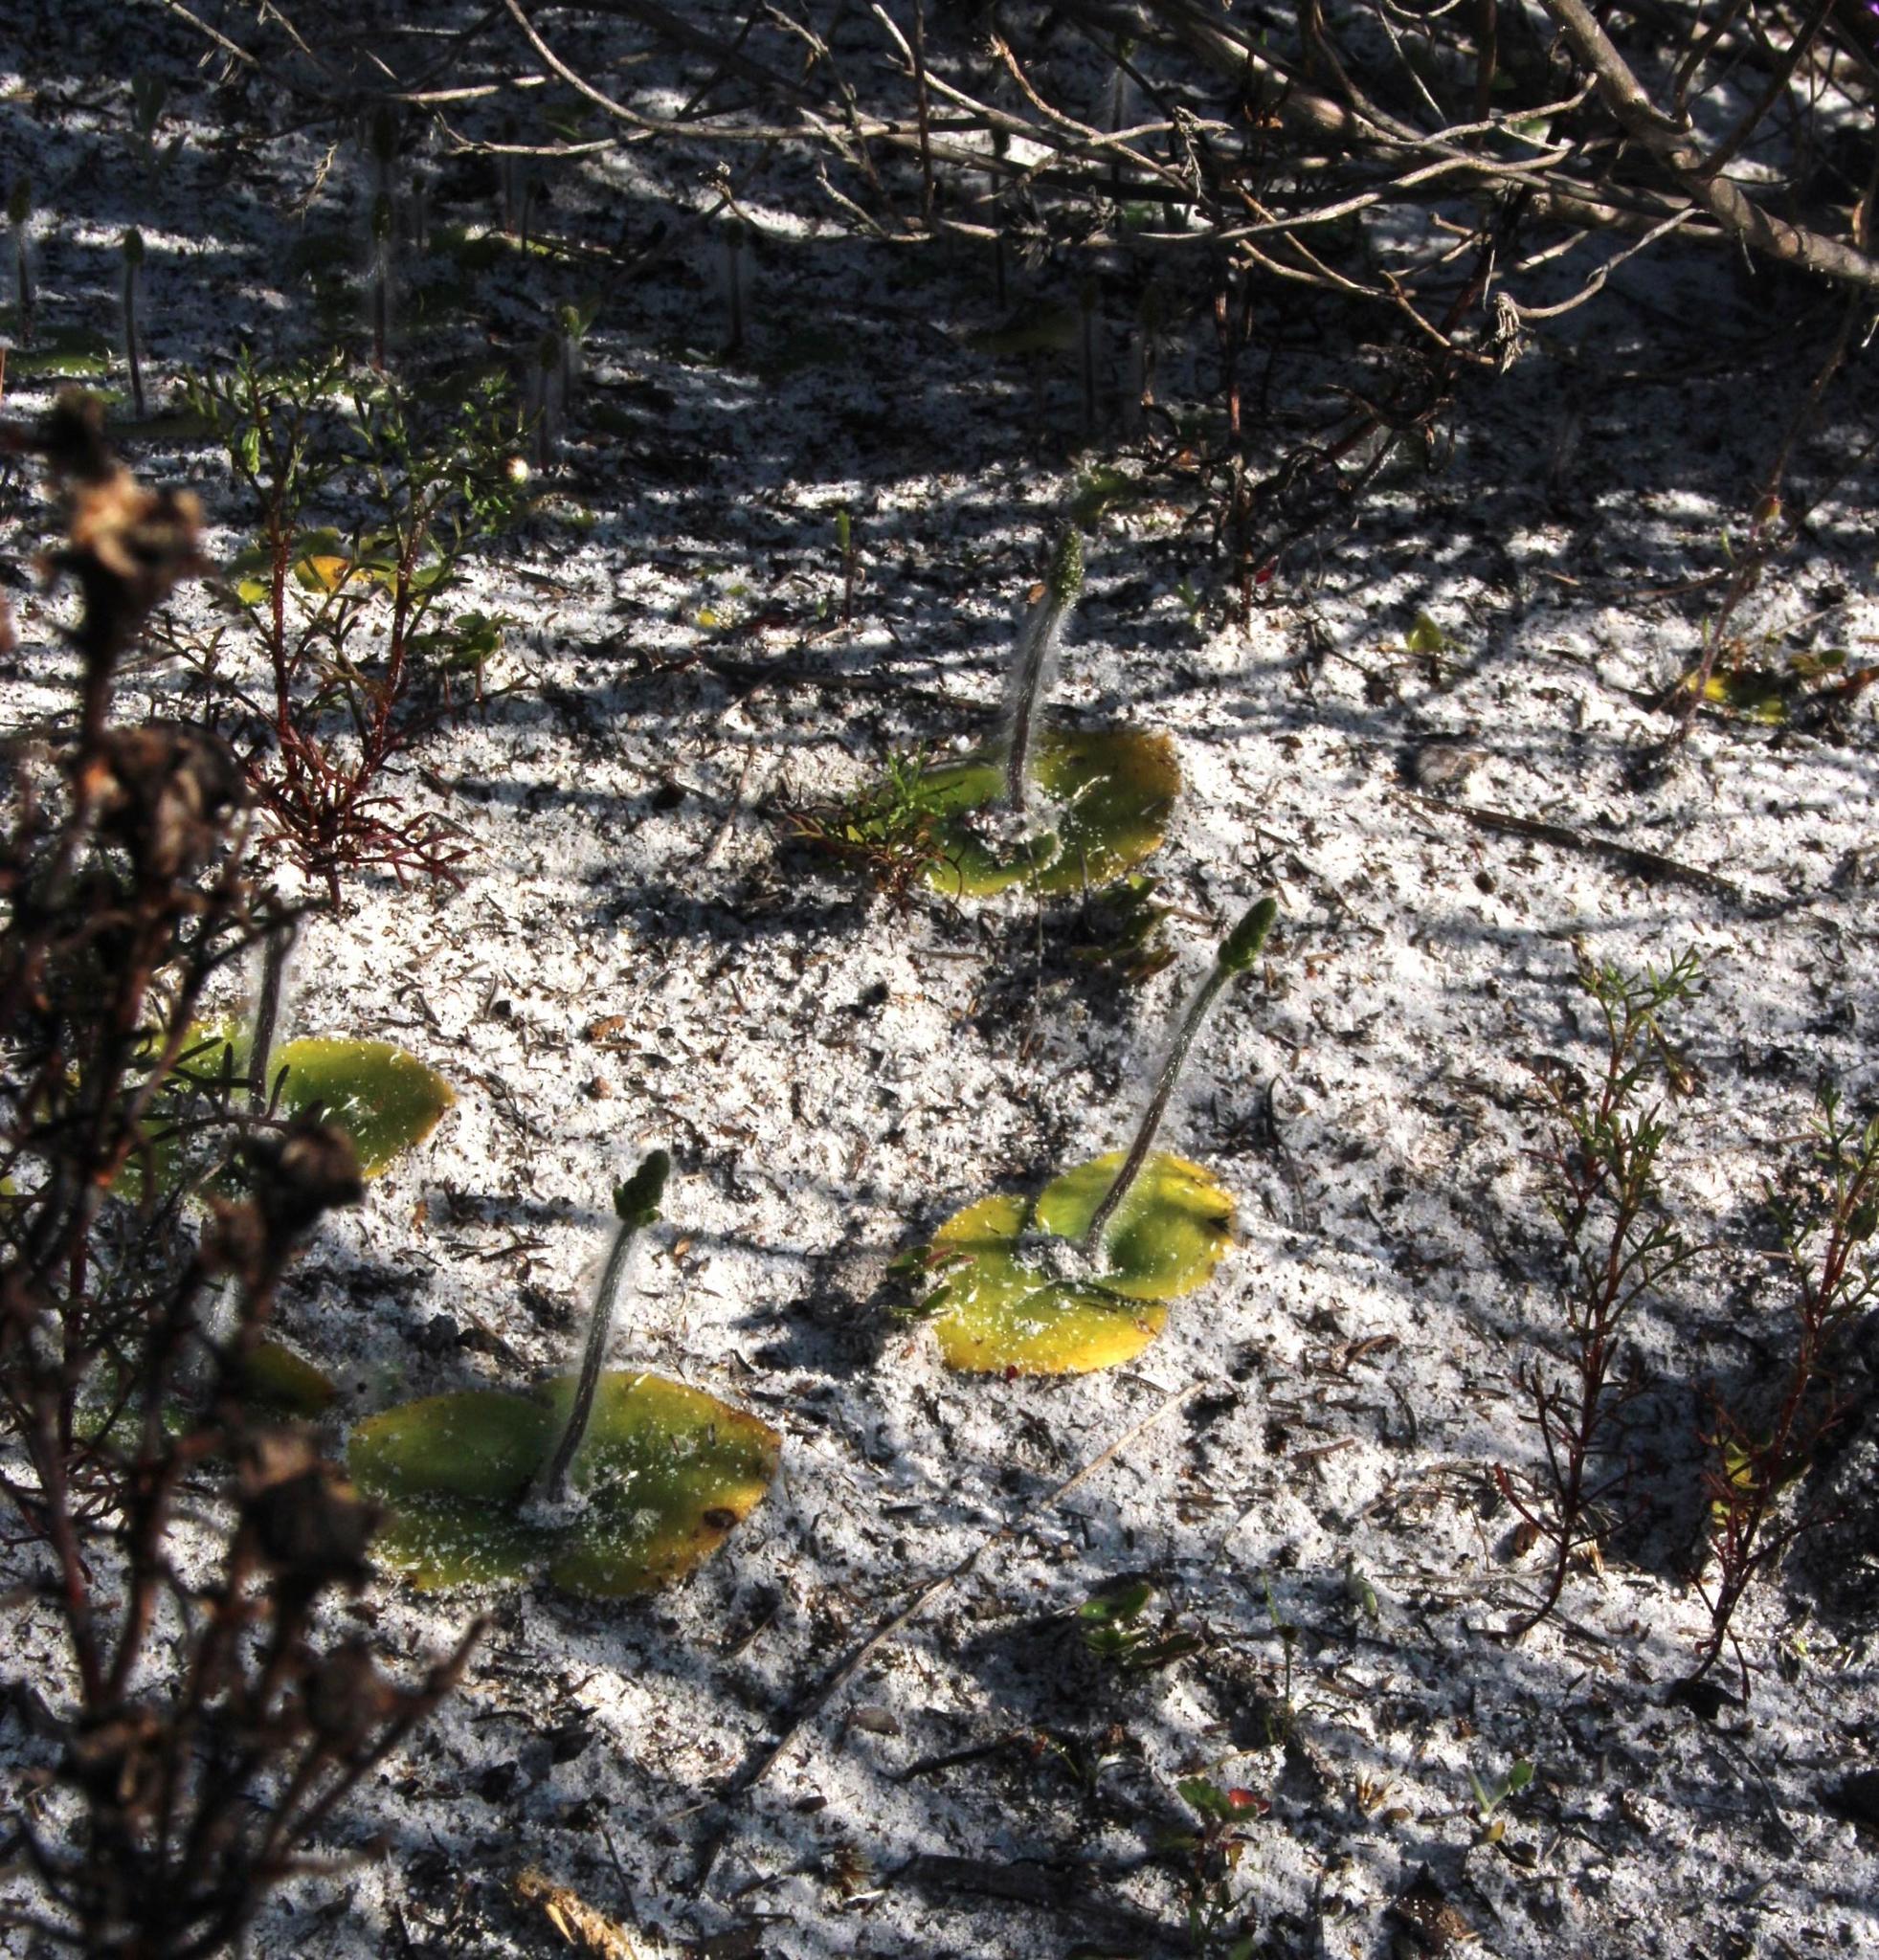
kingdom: Plantae
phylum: Tracheophyta
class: Liliopsida
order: Asparagales
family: Orchidaceae
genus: Holothrix
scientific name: Holothrix villosa
